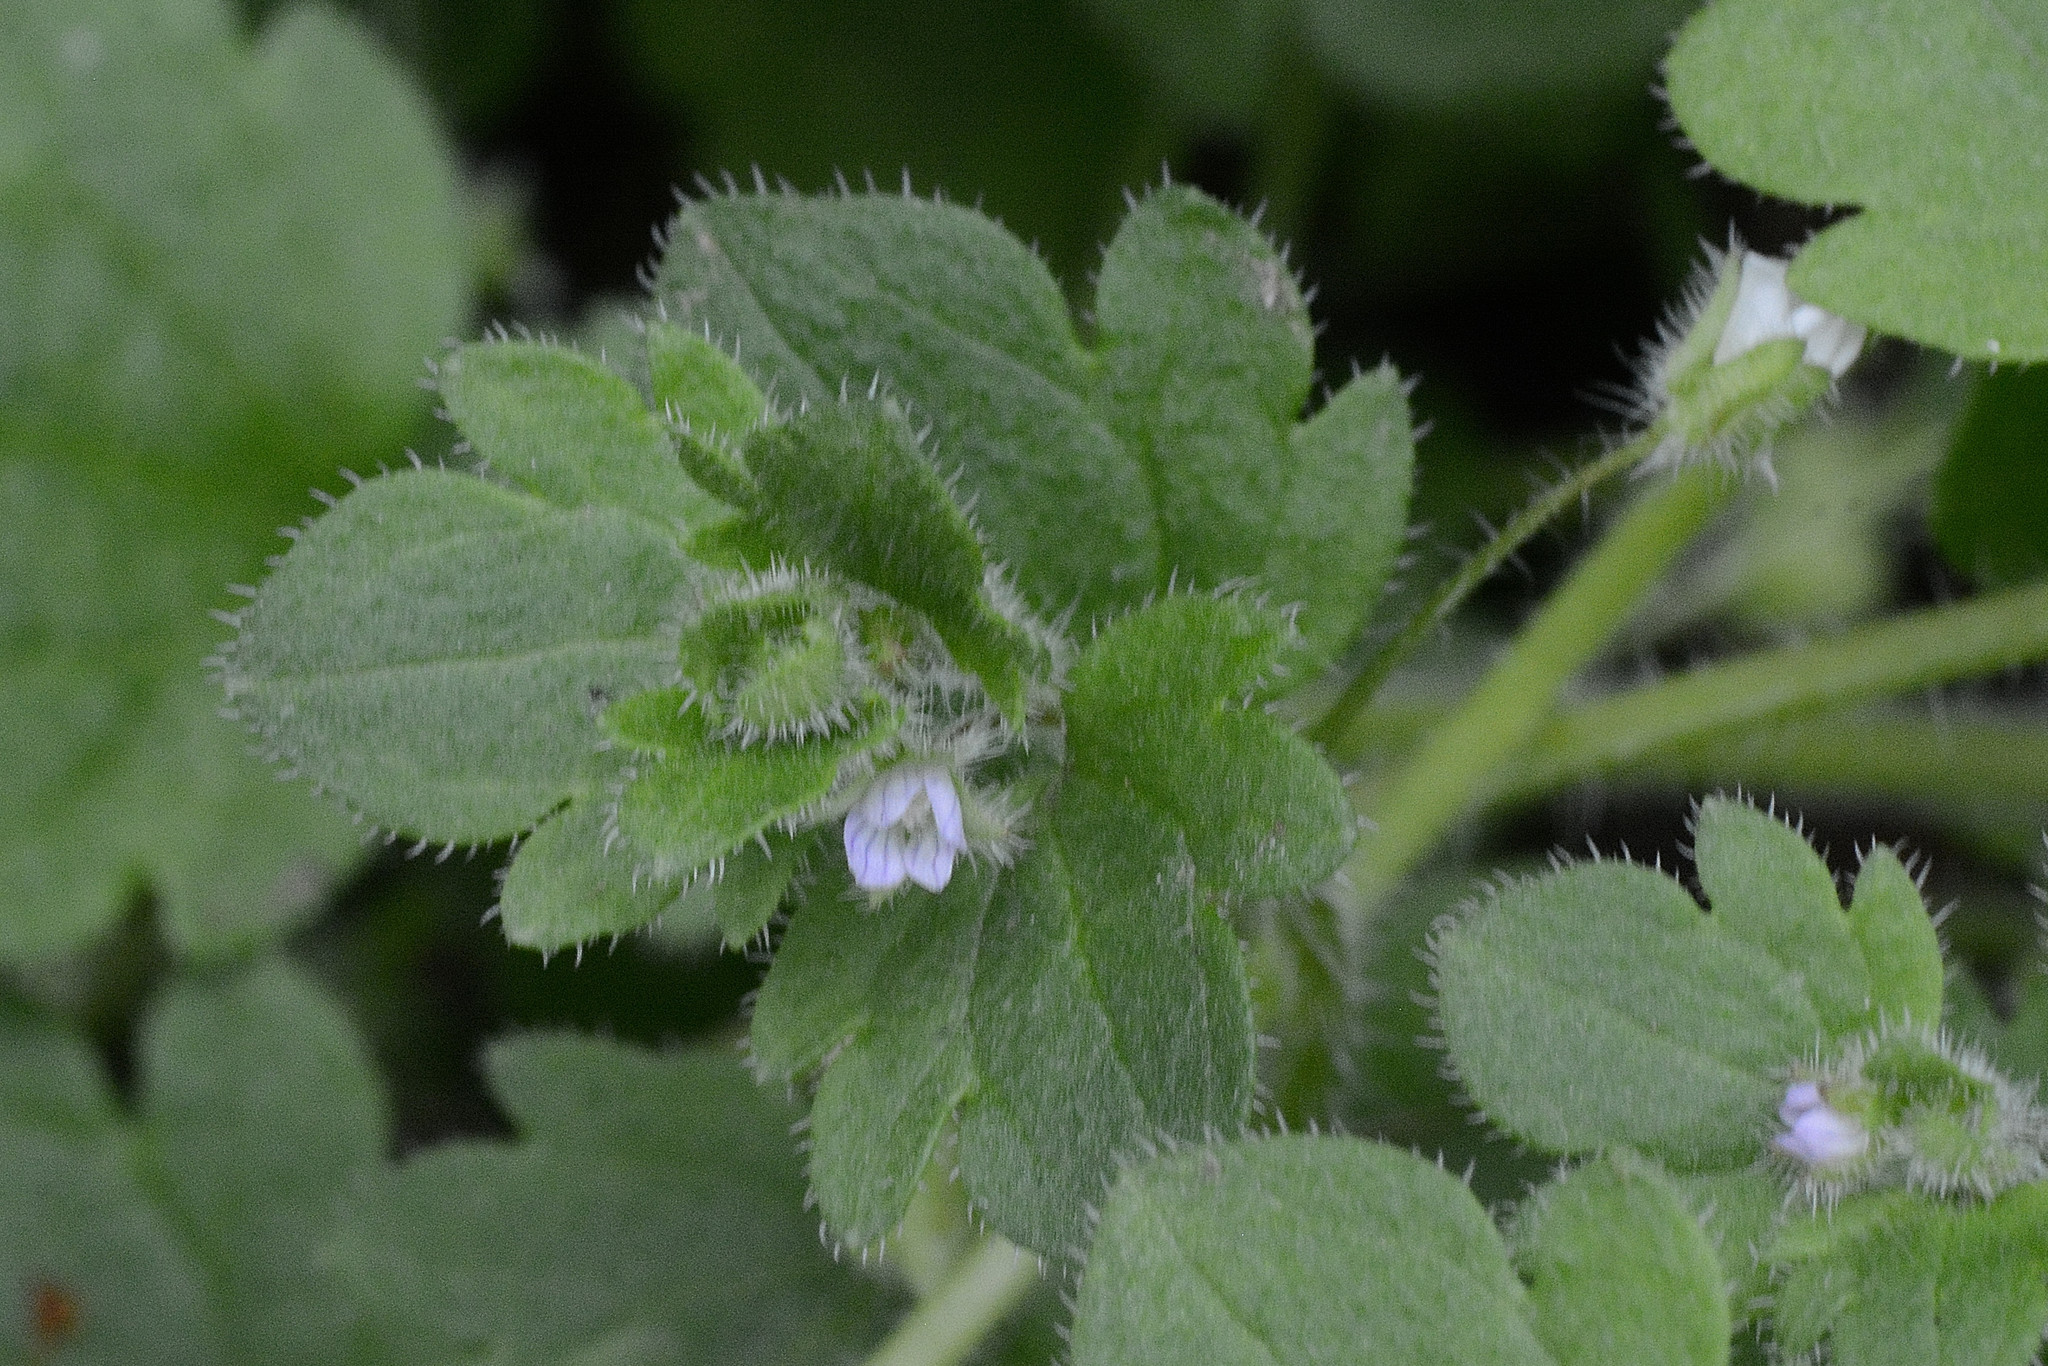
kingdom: Plantae
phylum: Tracheophyta
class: Magnoliopsida
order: Lamiales
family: Plantaginaceae
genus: Veronica
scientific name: Veronica sublobata
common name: False ivy-leaved speedwell
